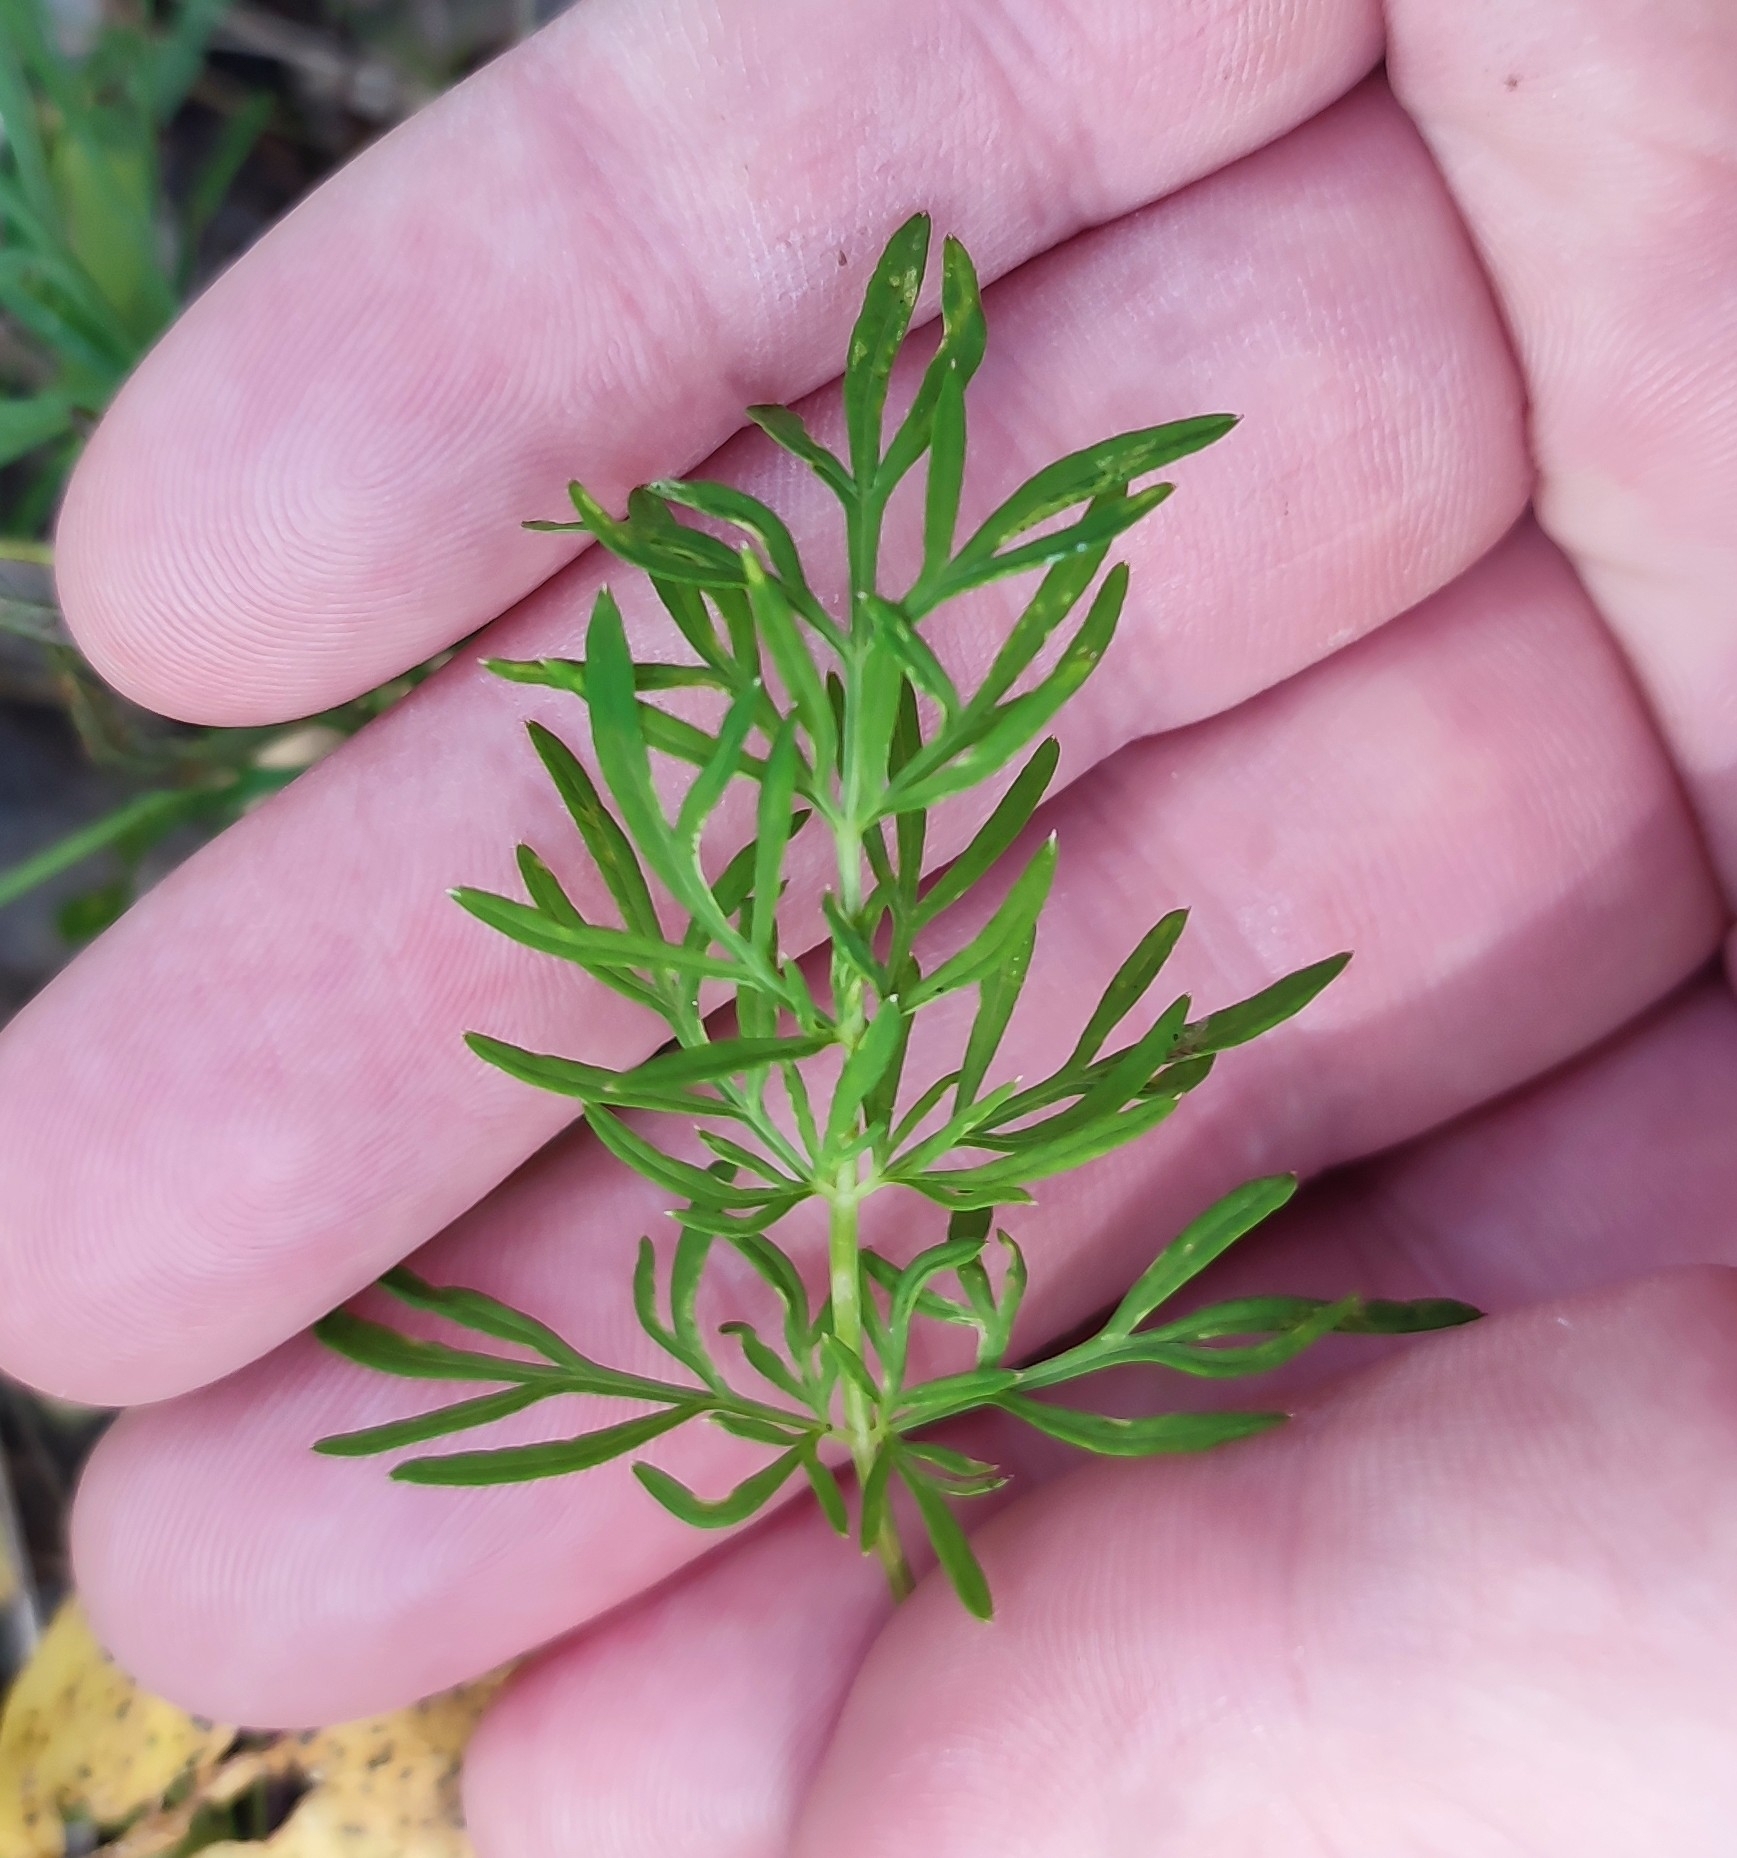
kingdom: Plantae
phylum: Tracheophyta
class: Magnoliopsida
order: Apiales
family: Apiaceae
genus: Kadenia
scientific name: Kadenia dubia
